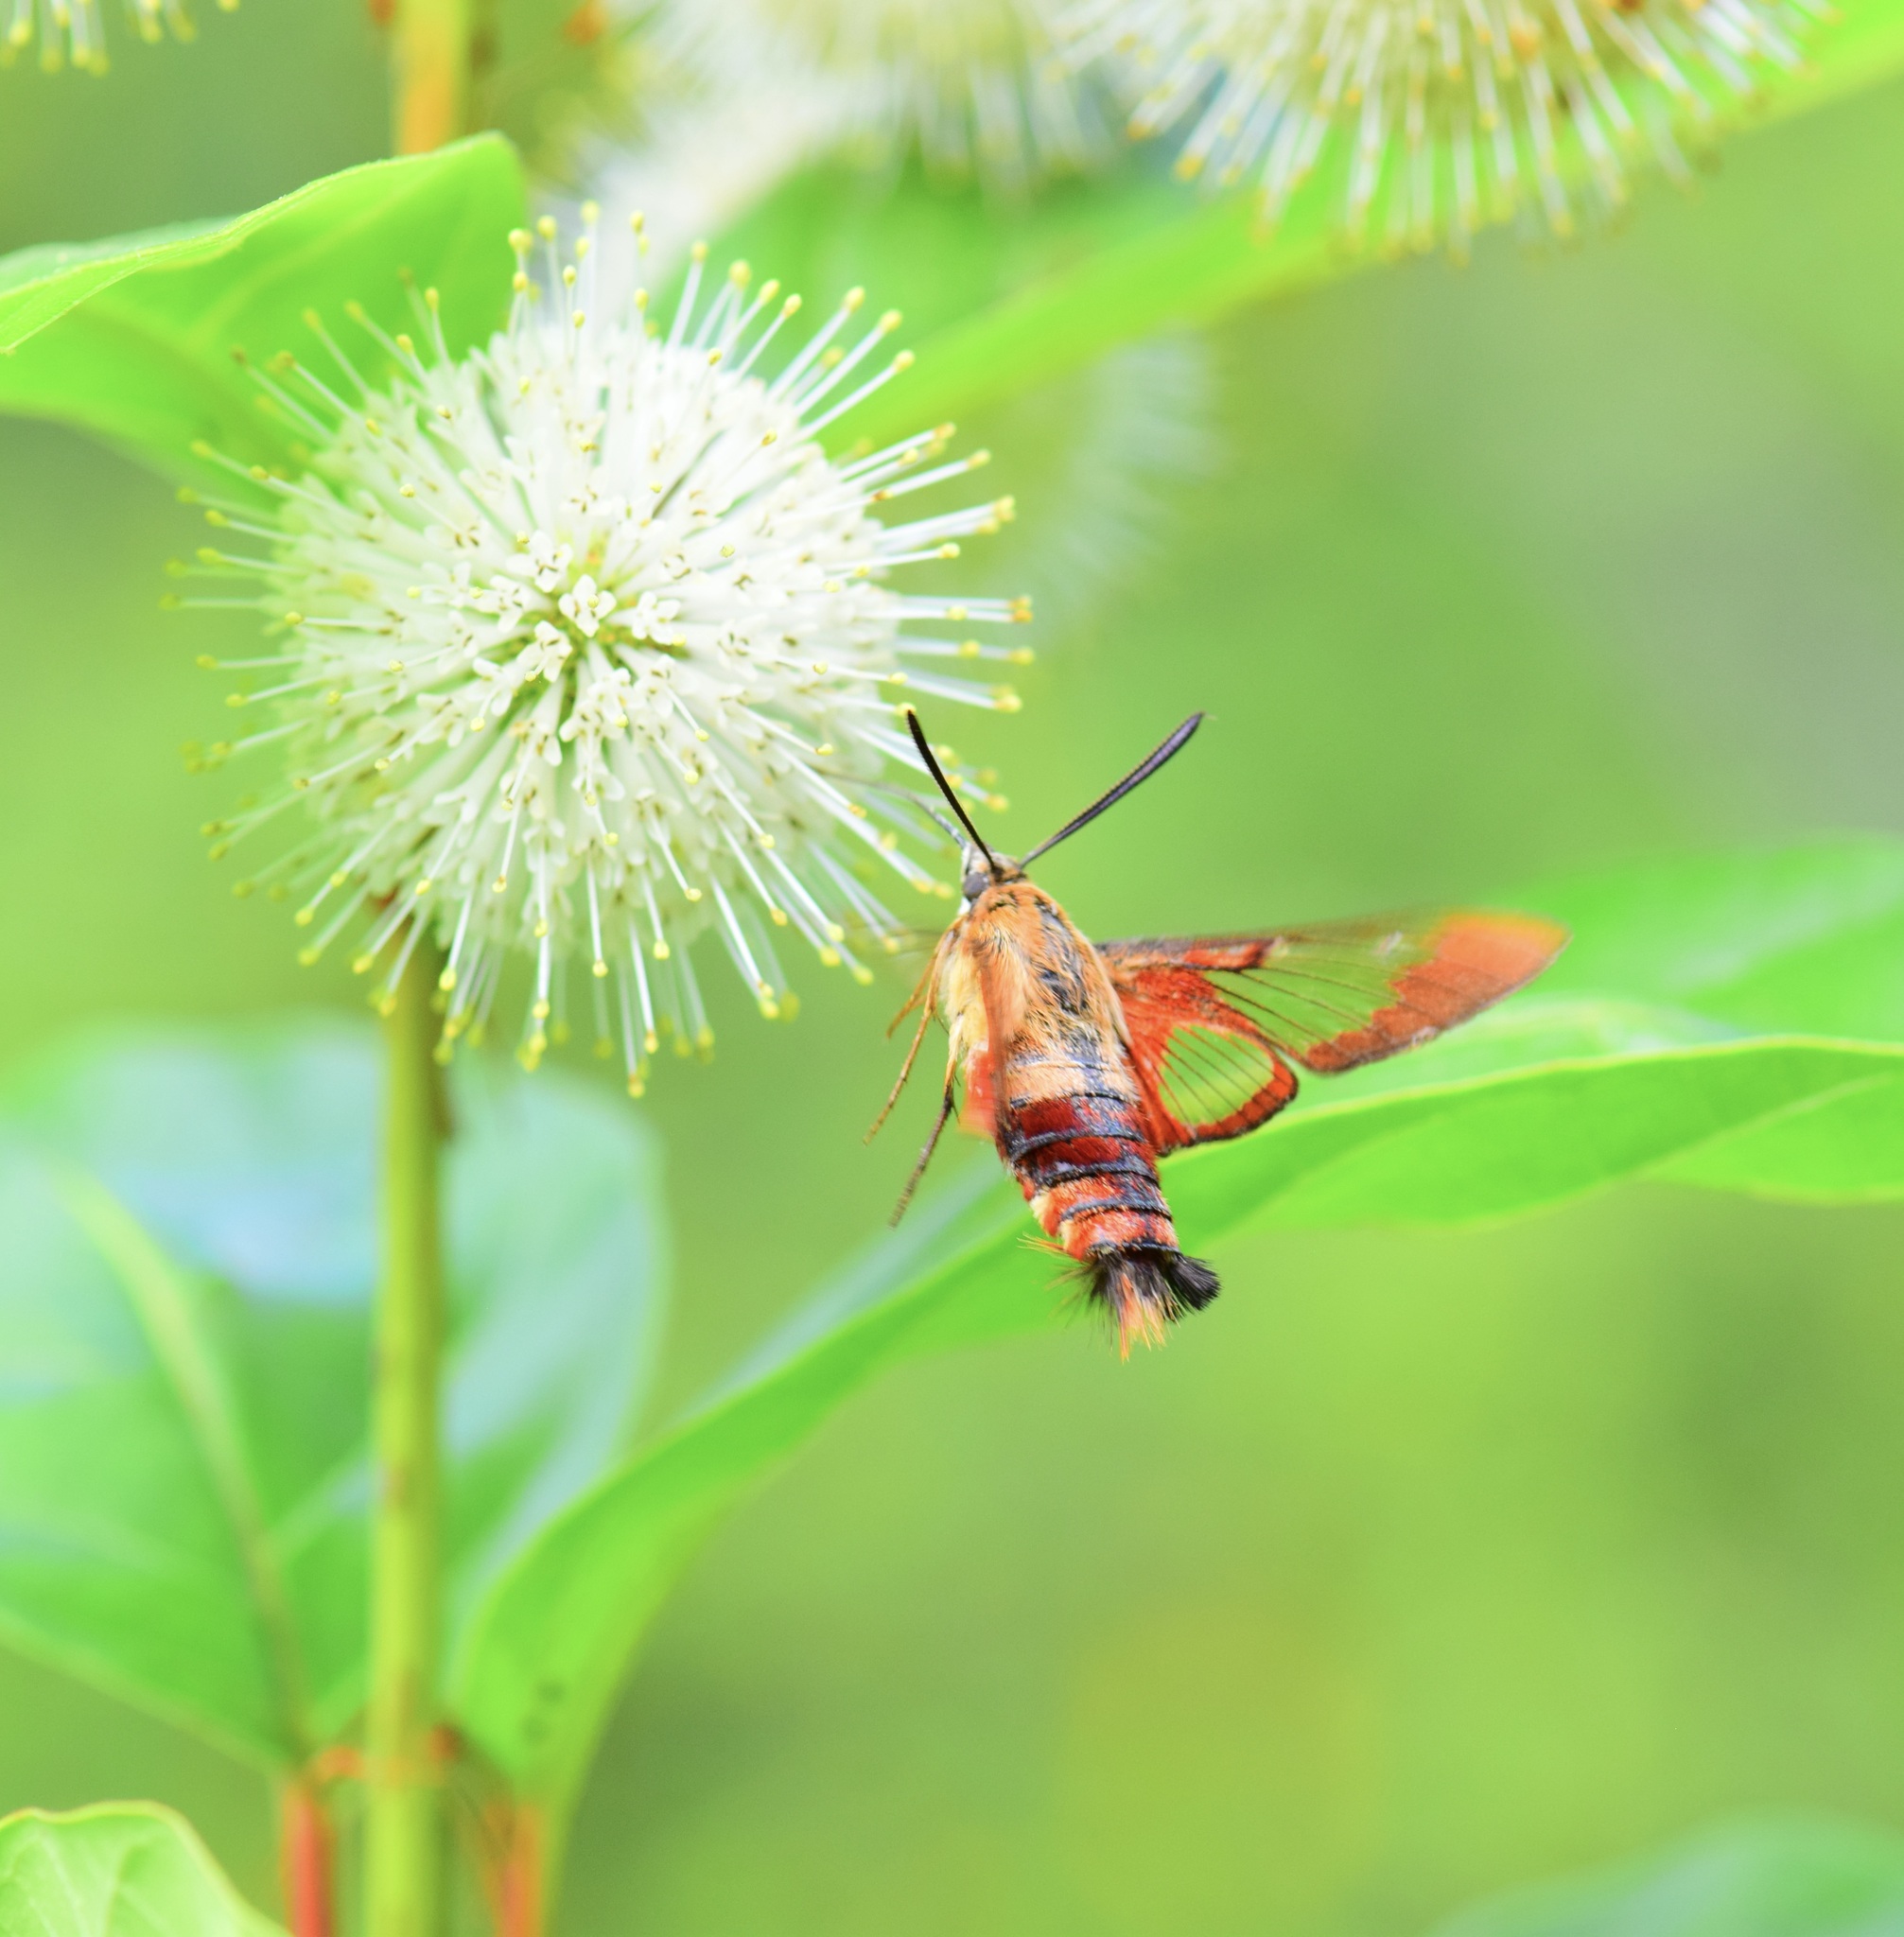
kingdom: Animalia
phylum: Arthropoda
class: Insecta
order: Lepidoptera
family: Sphingidae
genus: Hemaris
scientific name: Hemaris thysbe
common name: Common clear-wing
